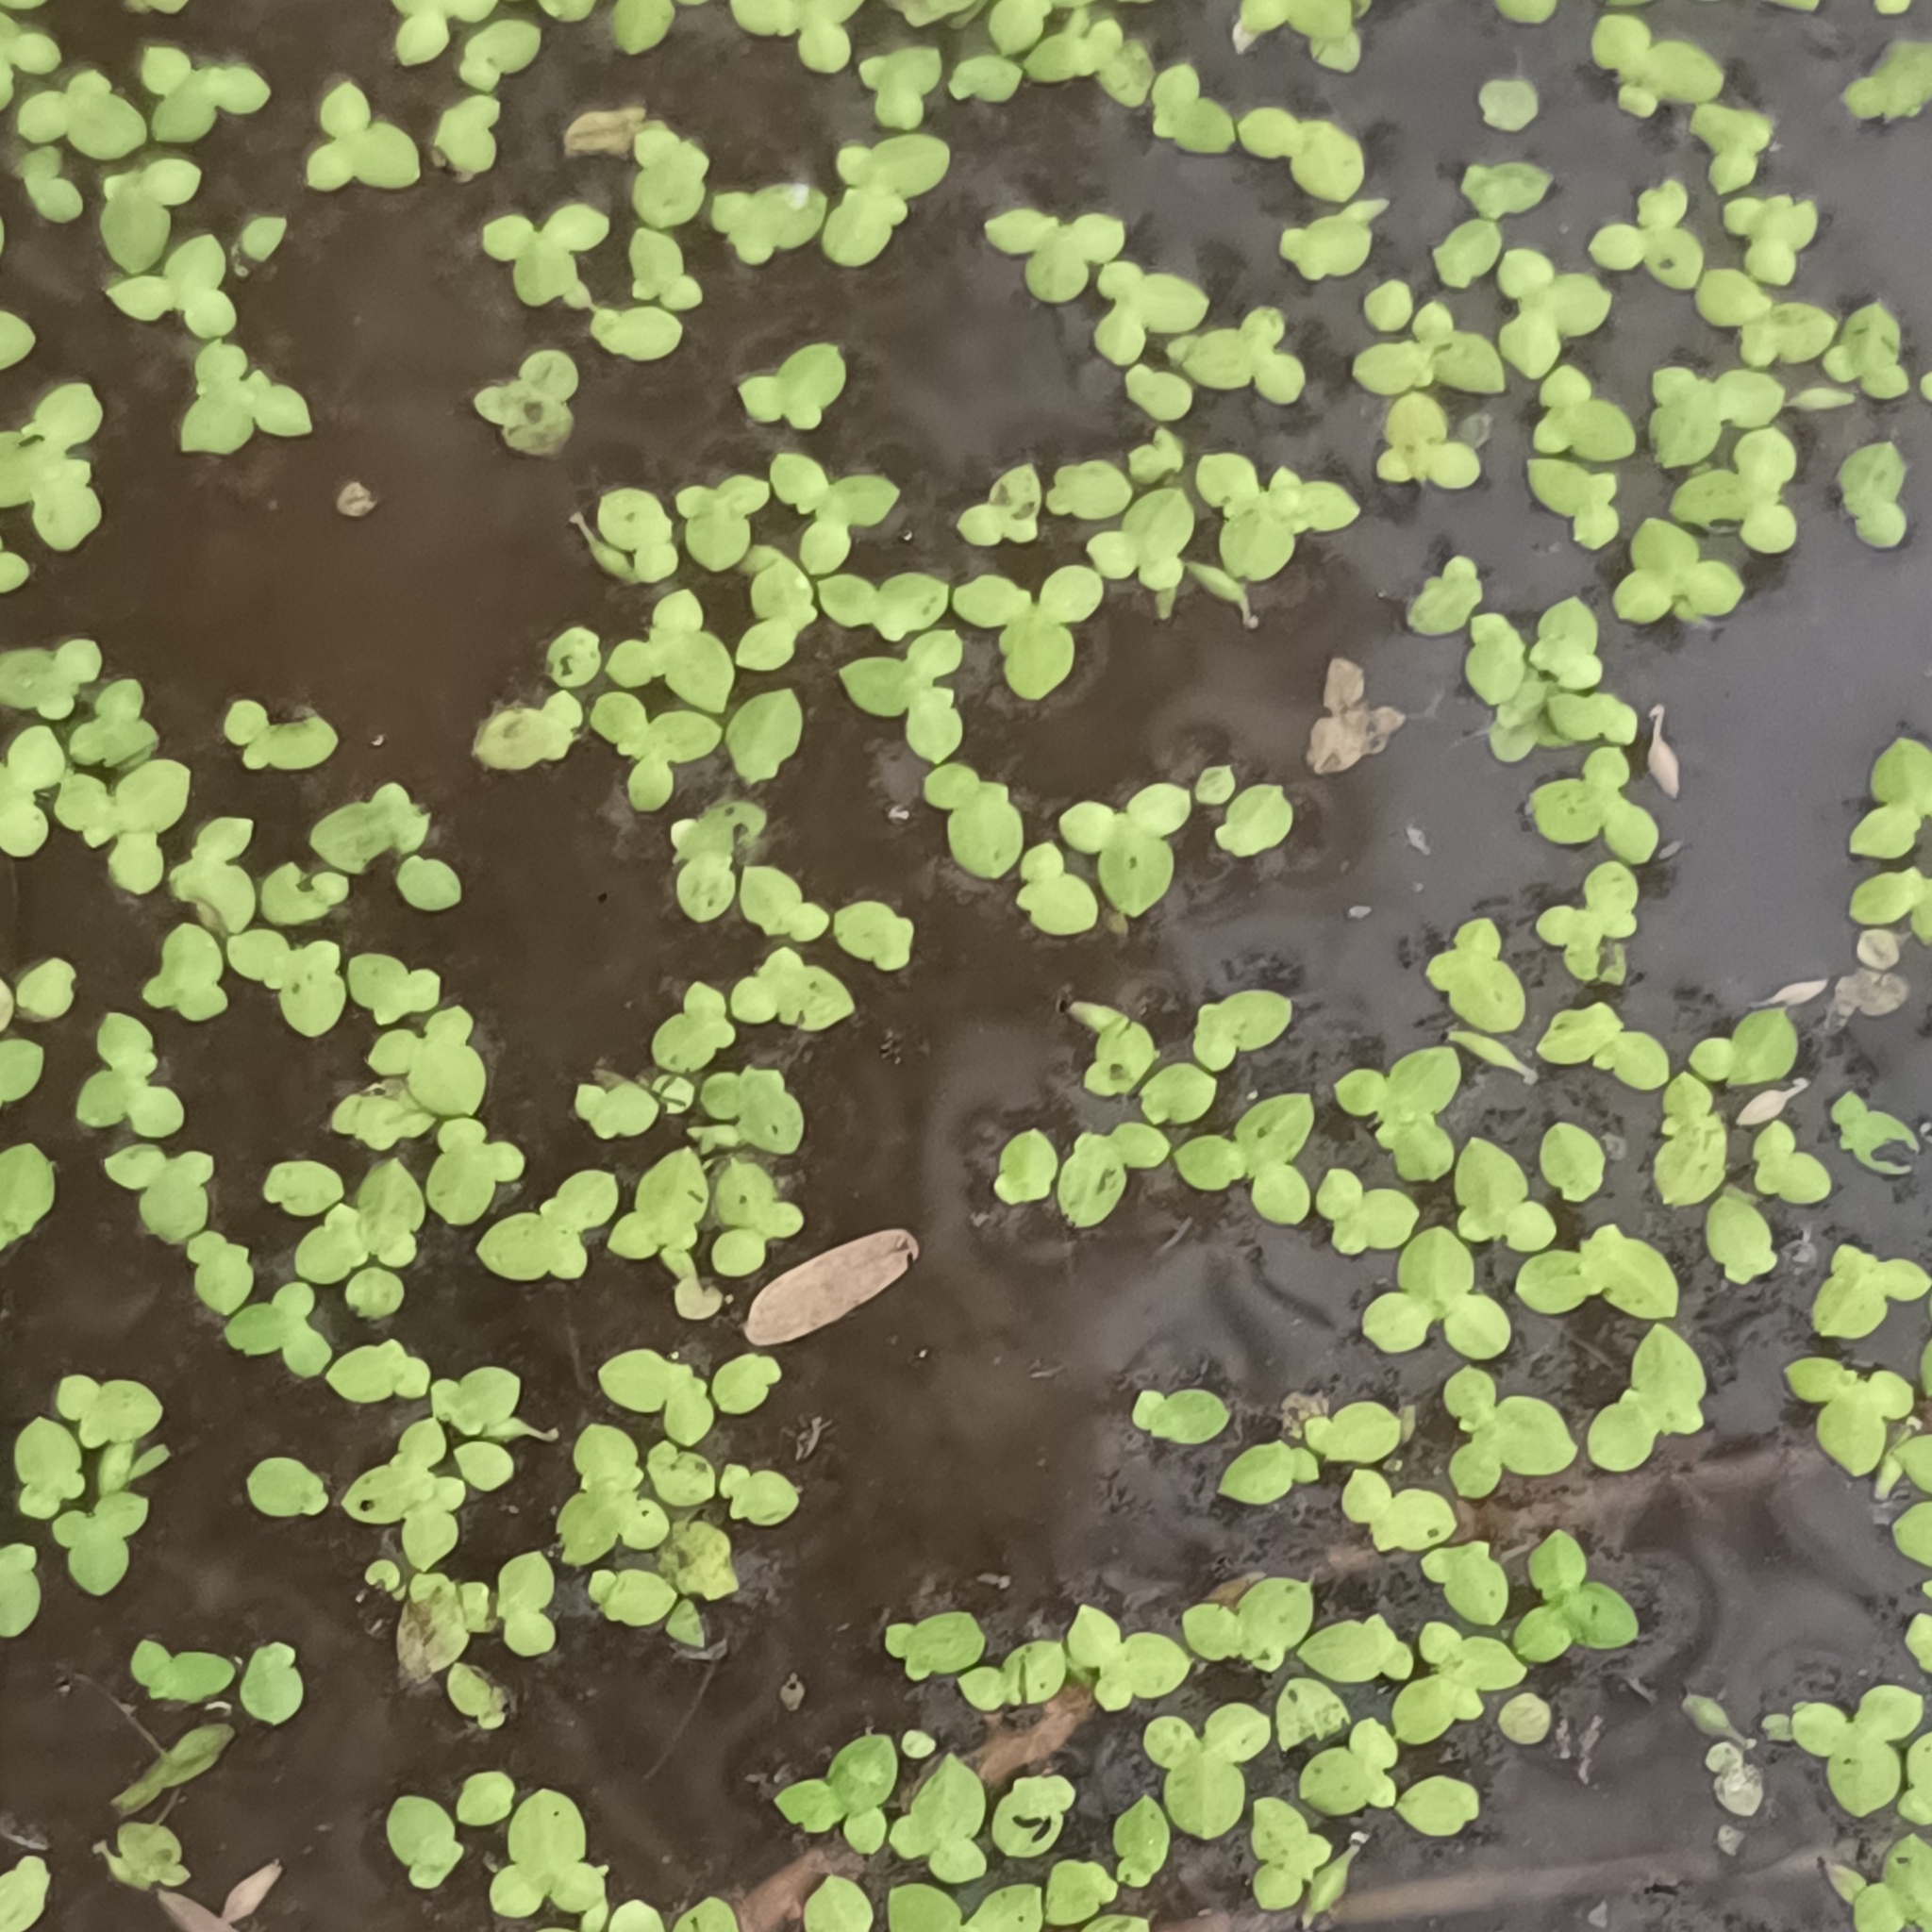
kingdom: Plantae
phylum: Tracheophyta
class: Liliopsida
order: Alismatales
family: Araceae
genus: Lemna
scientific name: Lemna minor
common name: Common duckweed
